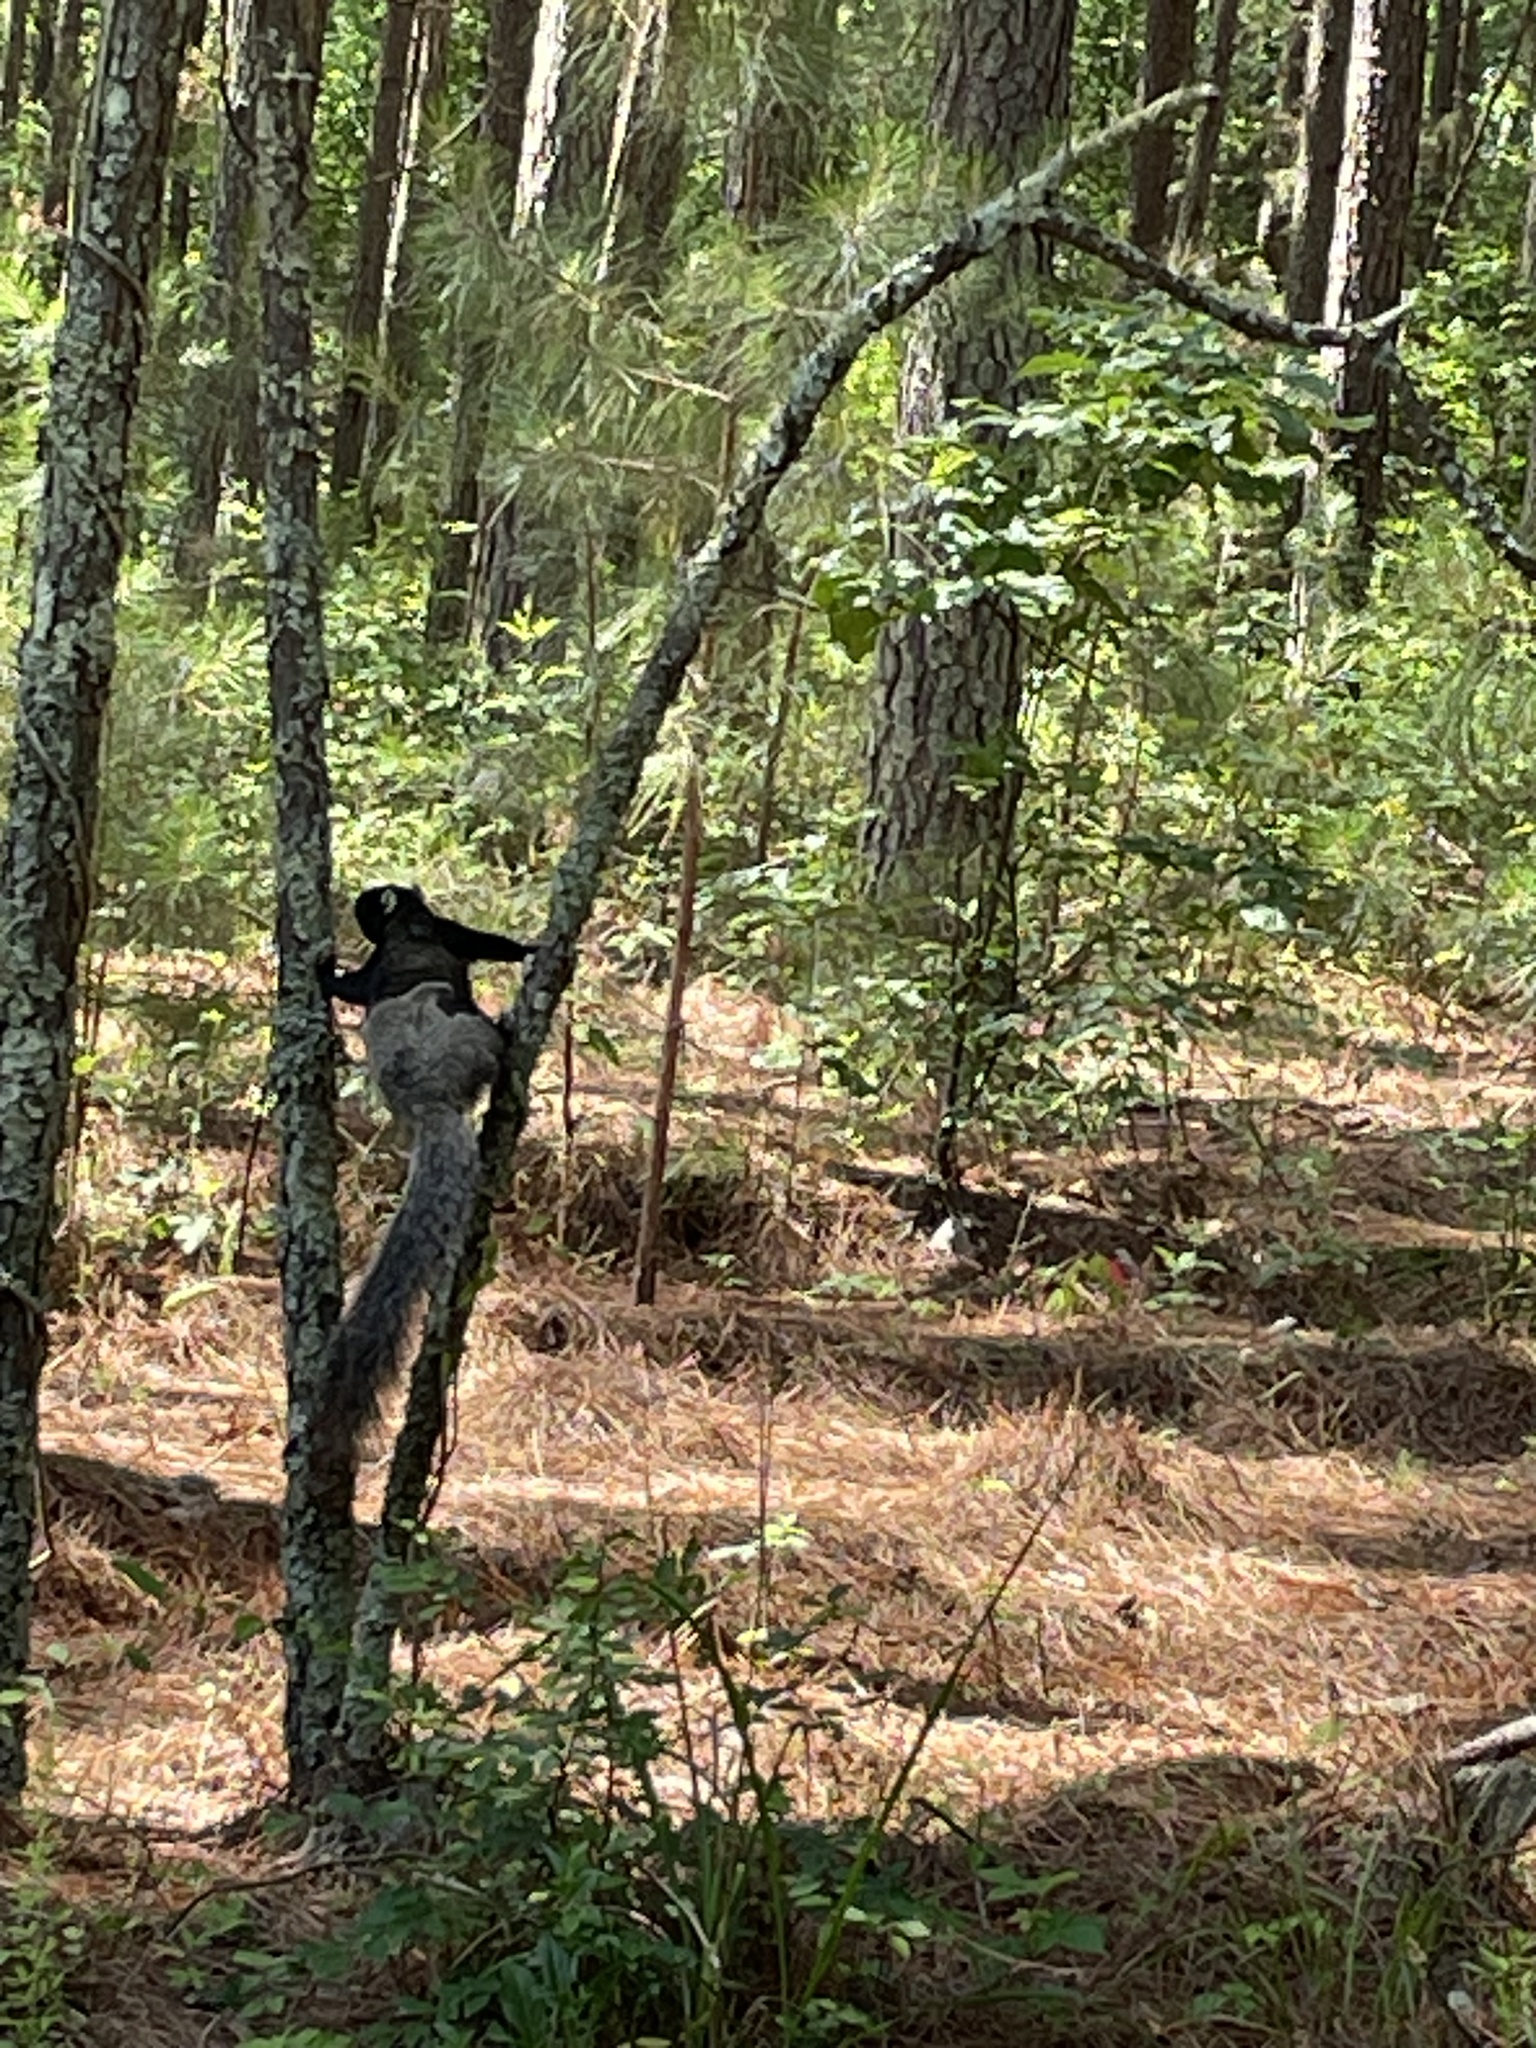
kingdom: Animalia
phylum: Chordata
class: Mammalia
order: Rodentia
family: Sciuridae
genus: Sciurus
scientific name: Sciurus niger
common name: Fox squirrel
